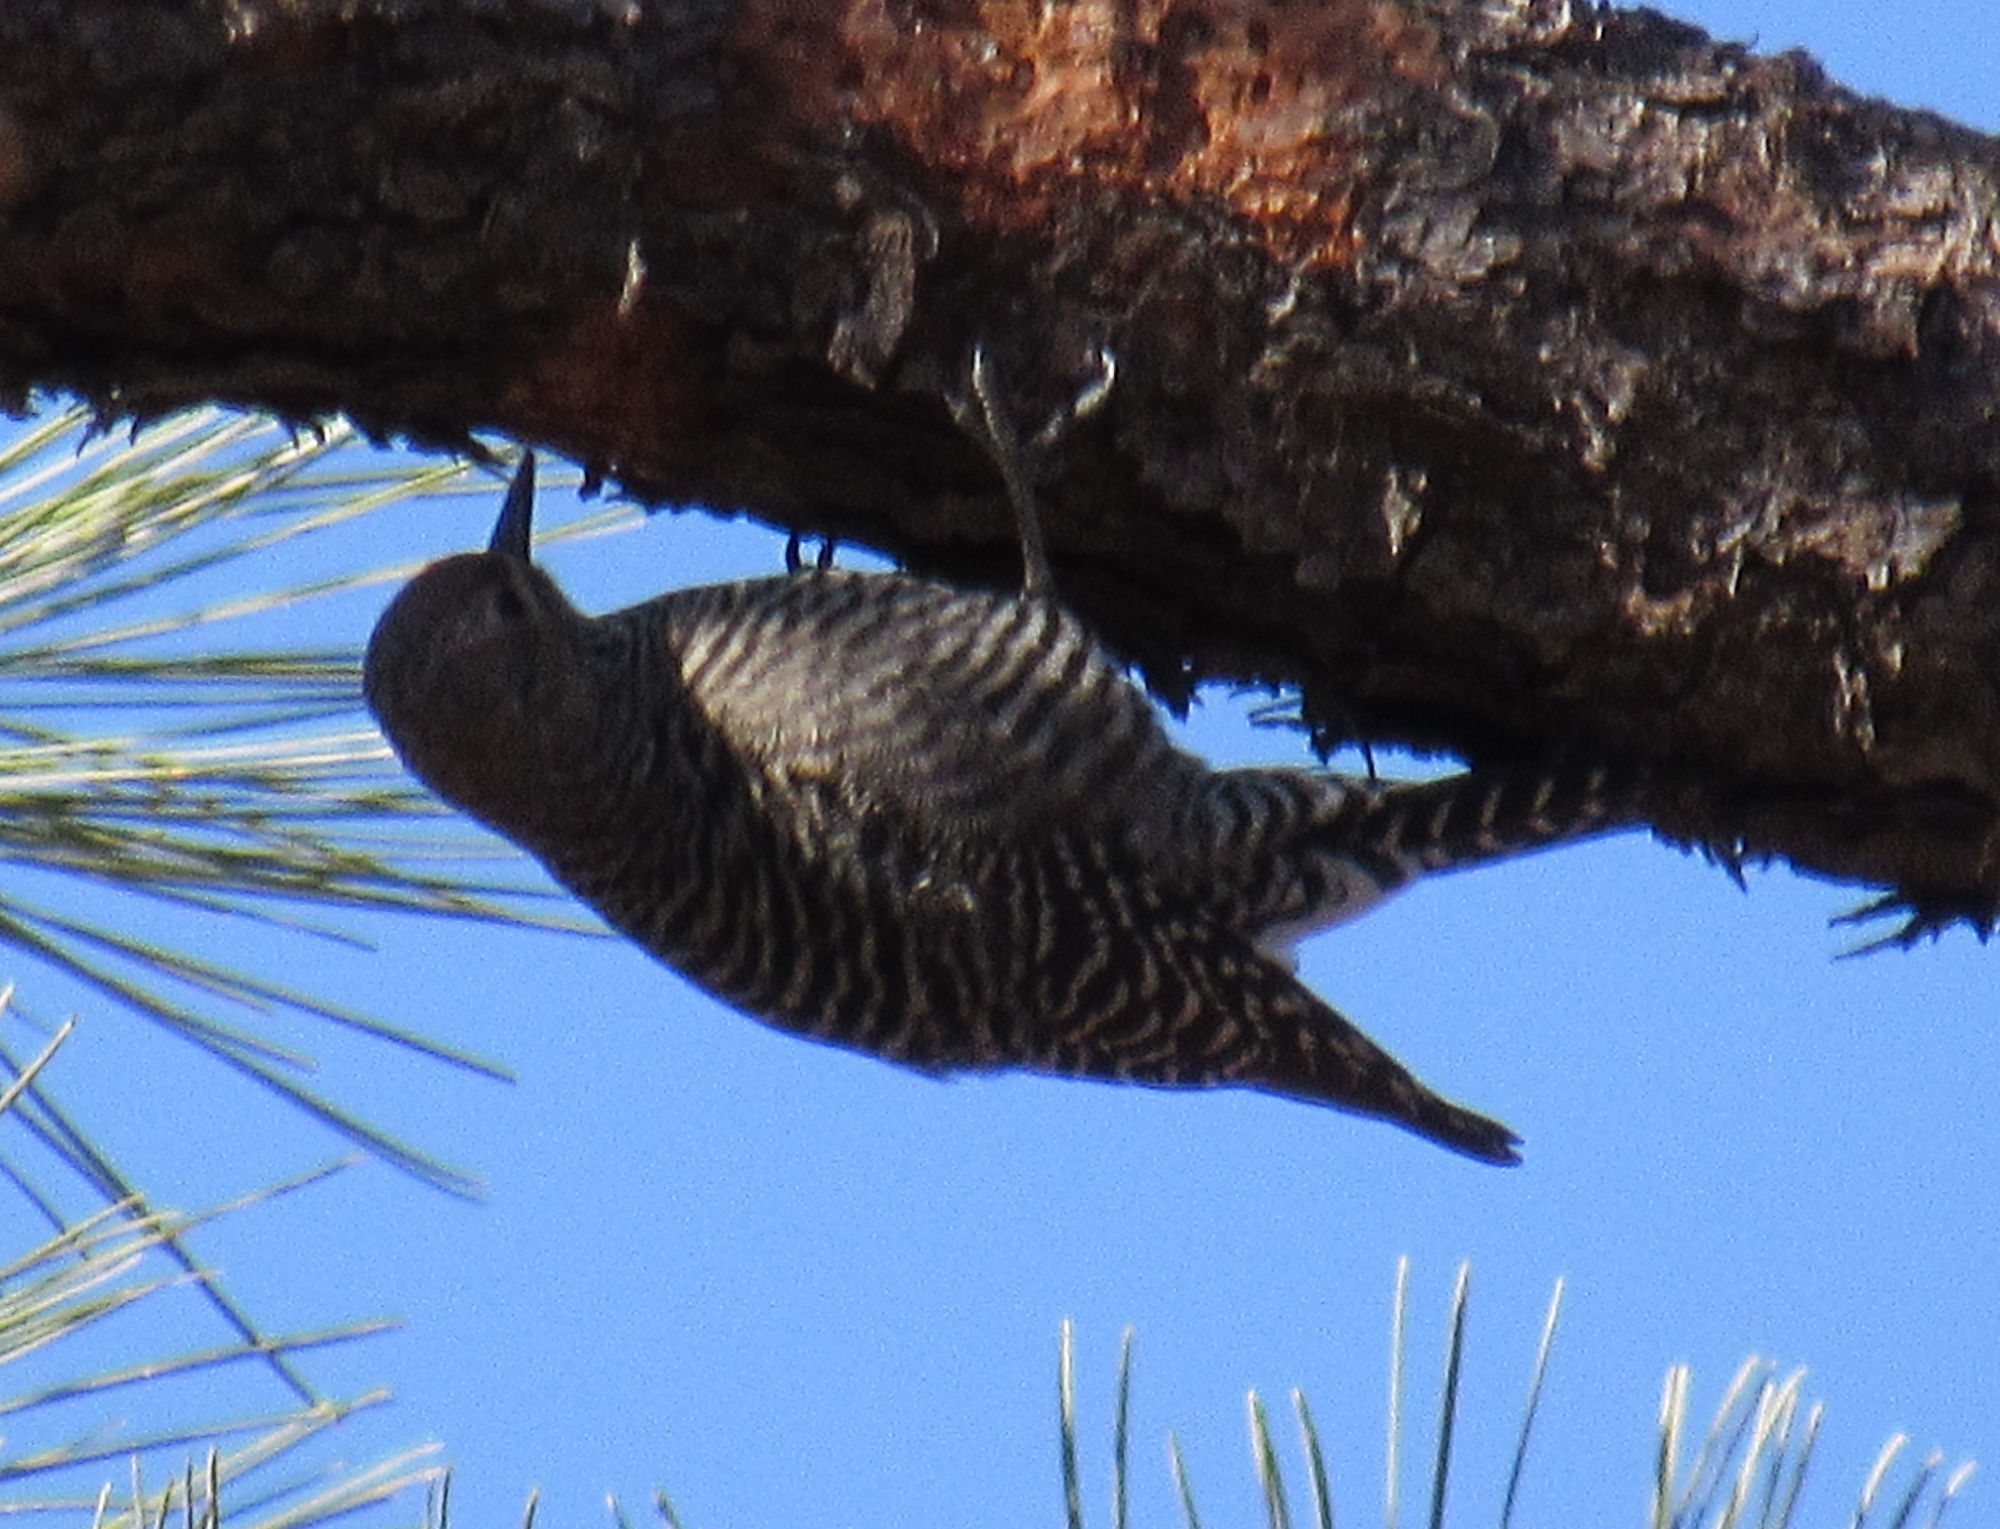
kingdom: Animalia
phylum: Chordata
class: Aves
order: Piciformes
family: Picidae
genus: Sphyrapicus
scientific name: Sphyrapicus thyroideus
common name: Williamson's sapsucker
